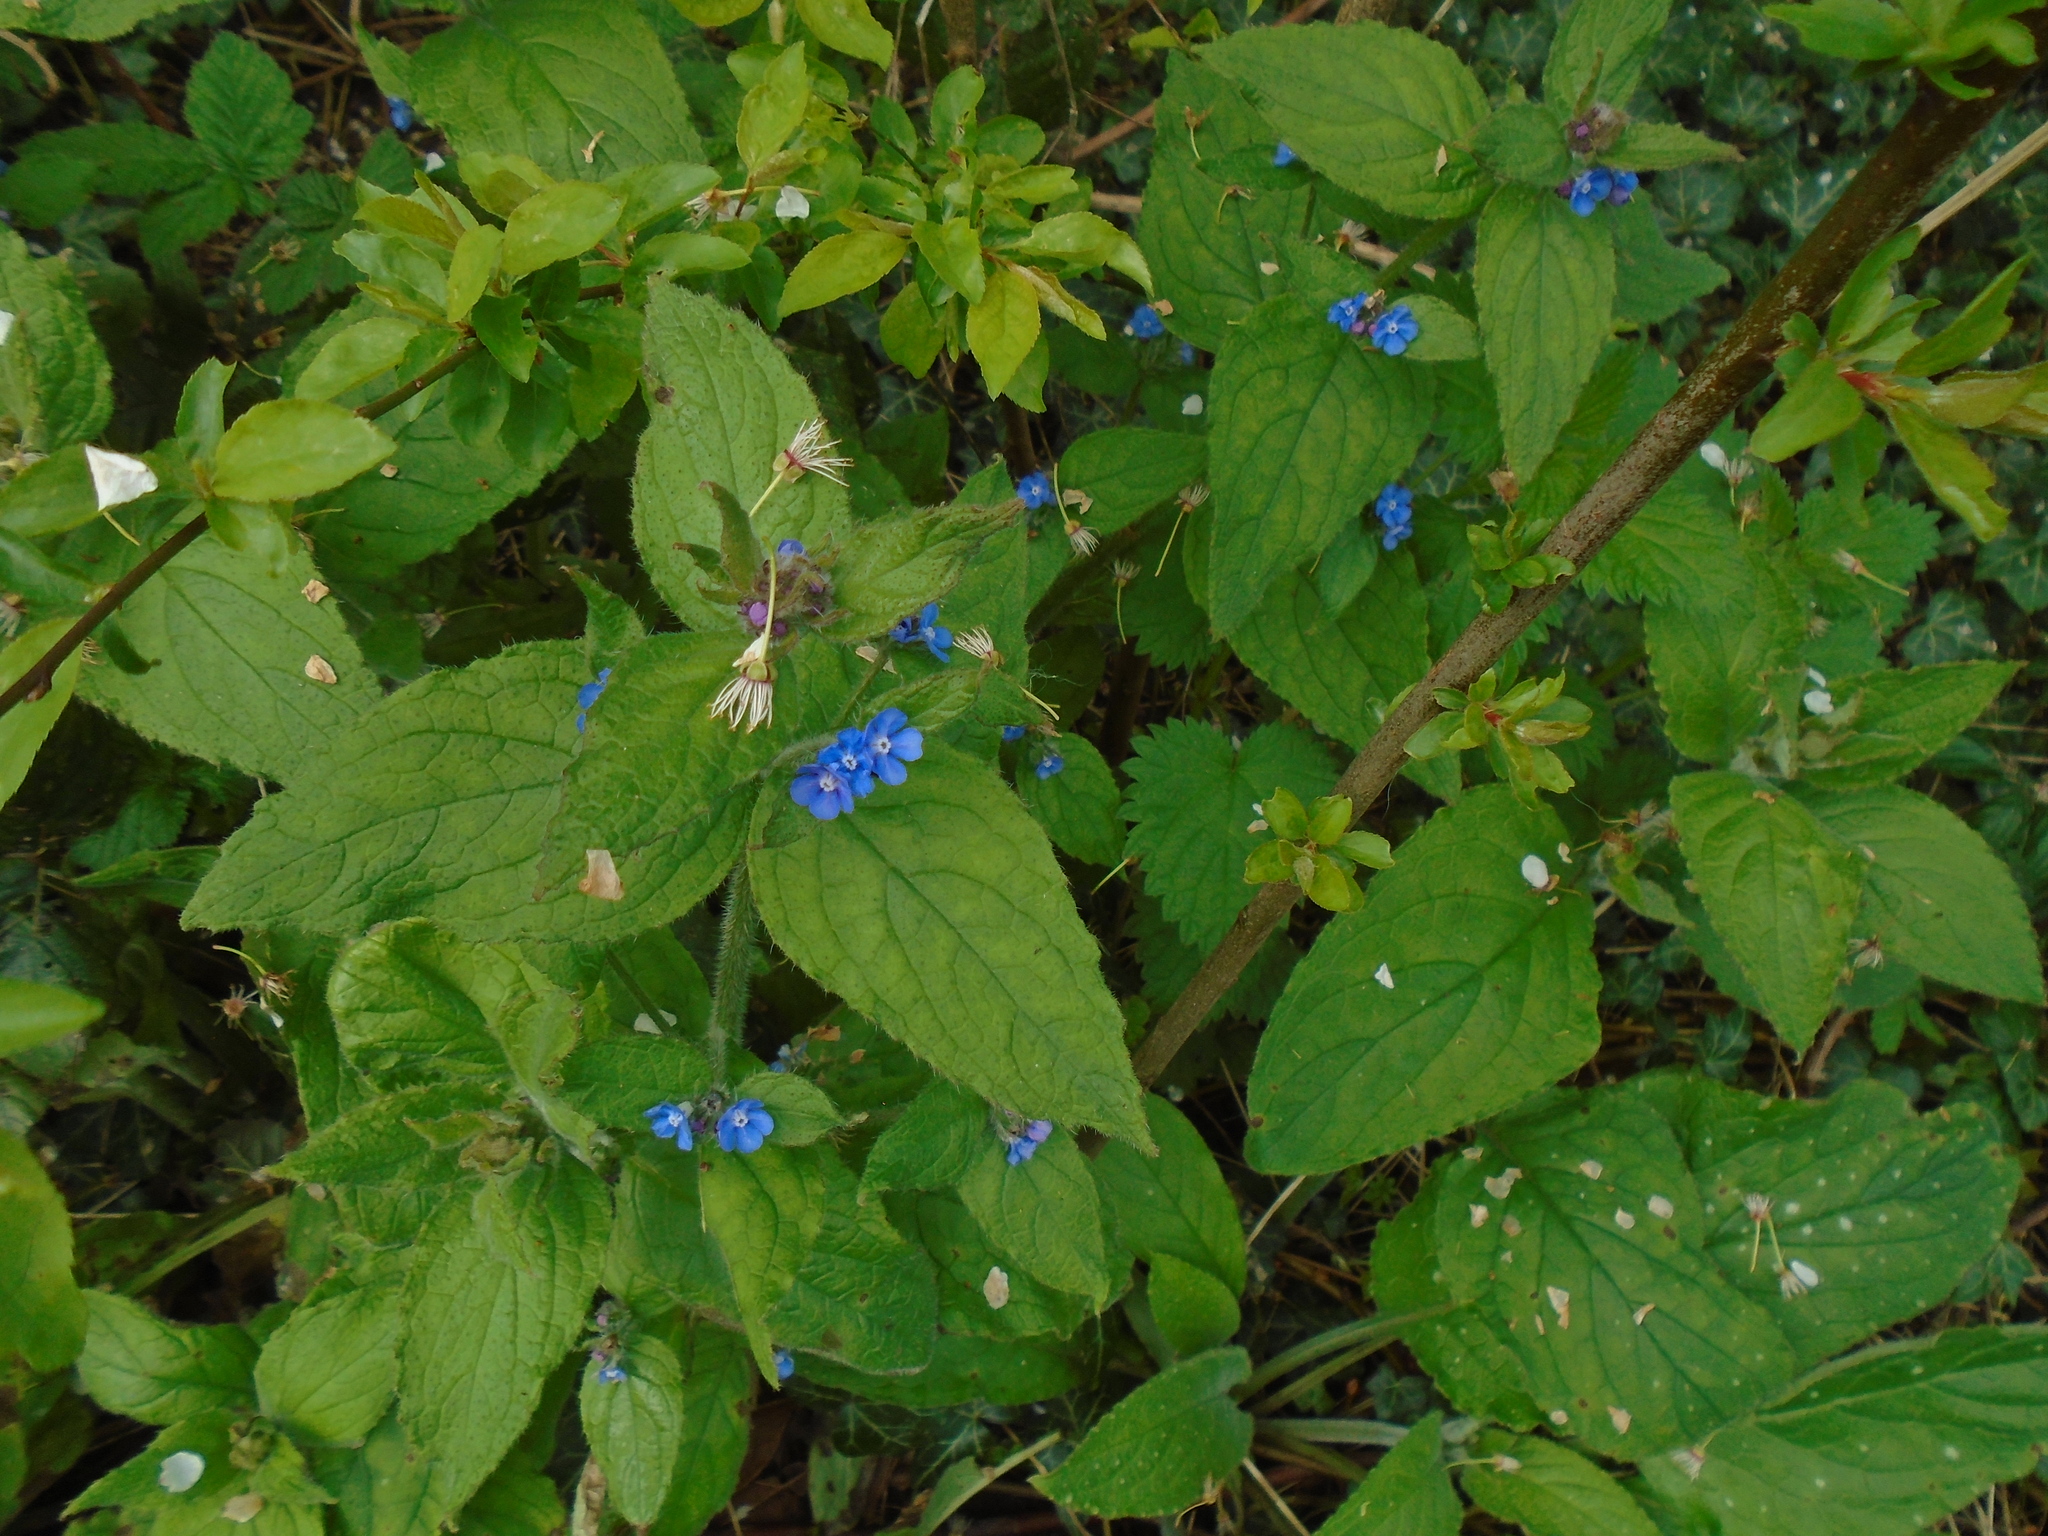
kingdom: Plantae
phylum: Tracheophyta
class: Magnoliopsida
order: Boraginales
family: Boraginaceae
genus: Pentaglottis
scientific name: Pentaglottis sempervirens
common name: Green alkanet
